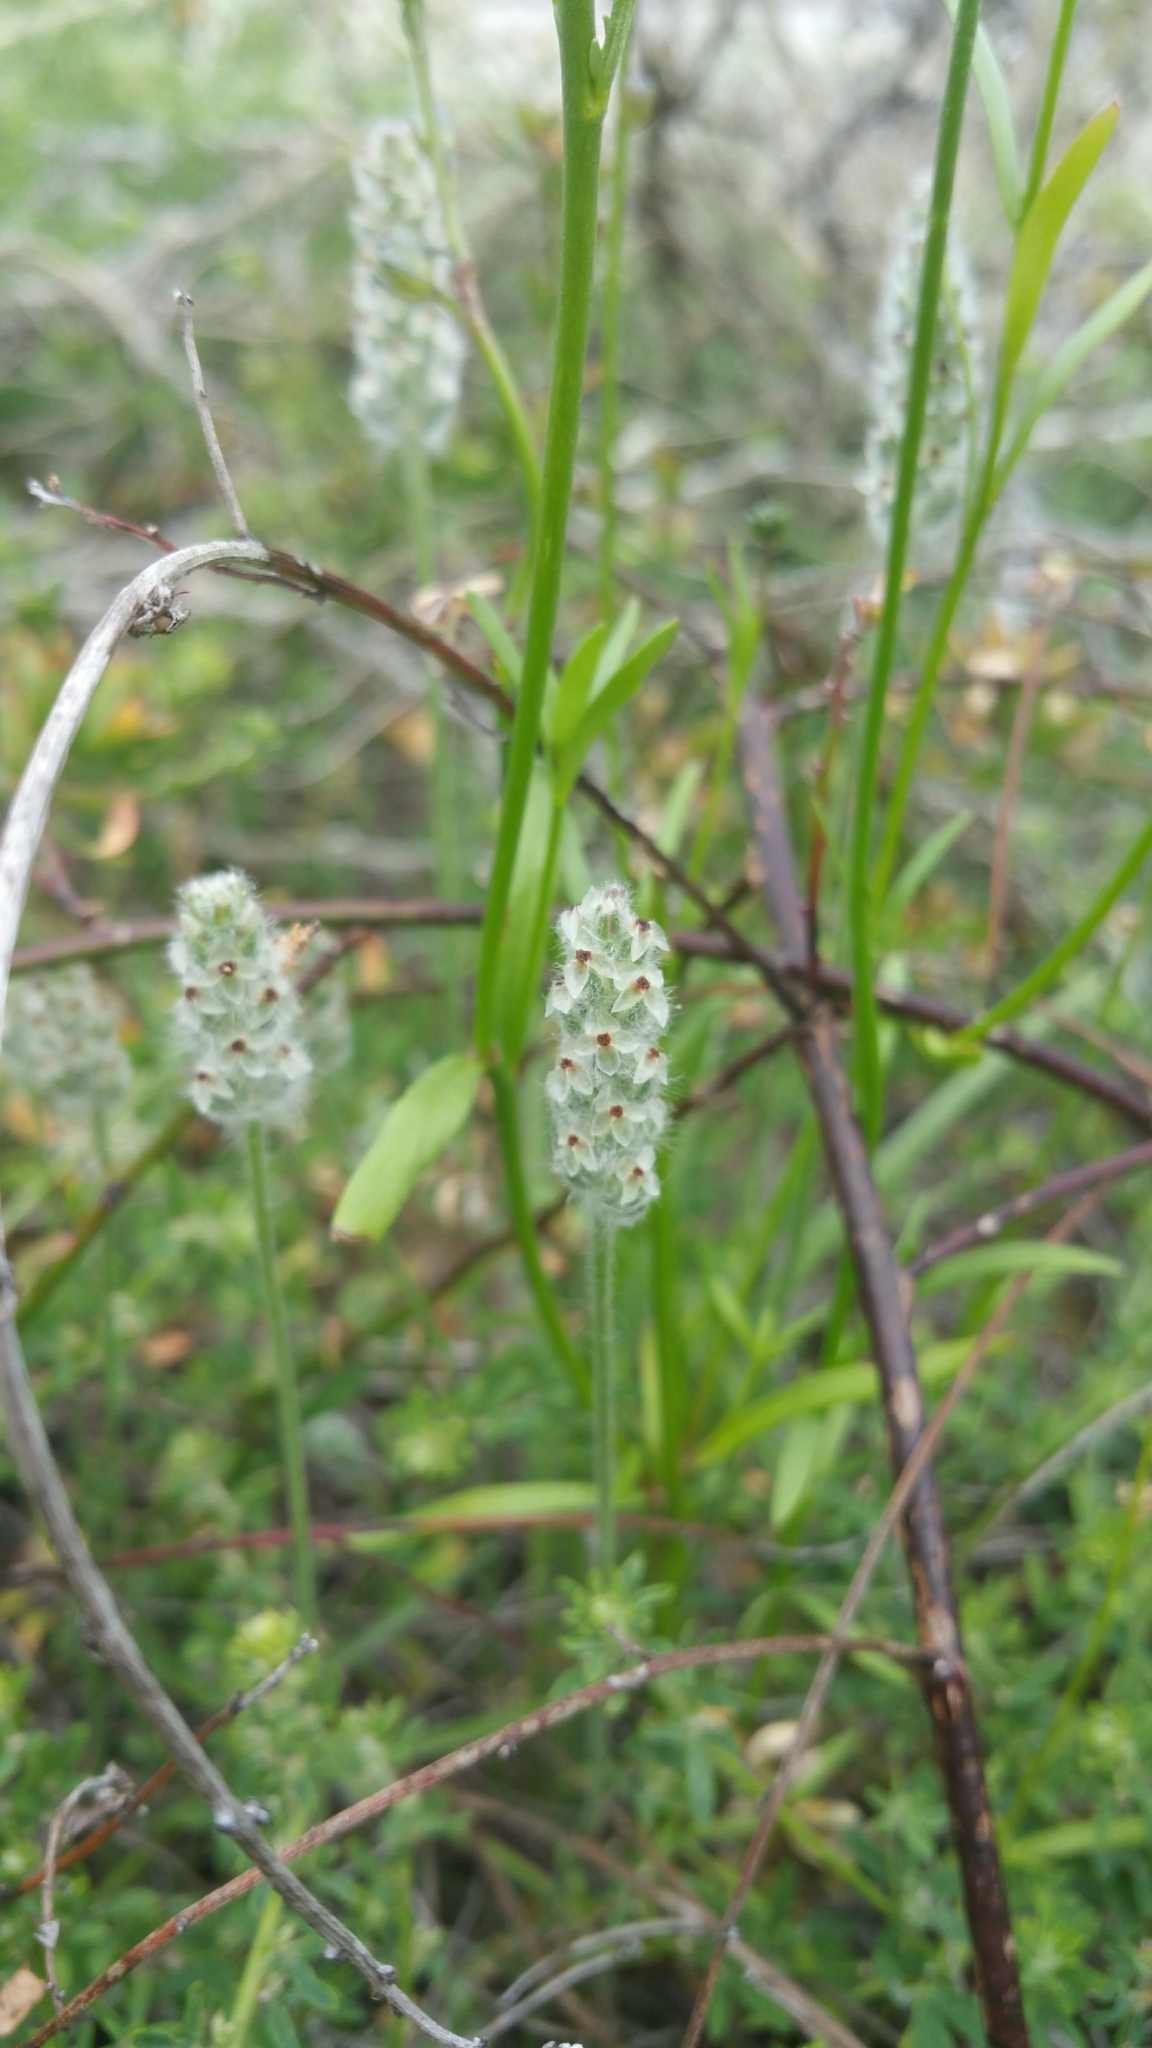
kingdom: Plantae
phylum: Tracheophyta
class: Magnoliopsida
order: Lamiales
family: Plantaginaceae
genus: Plantago
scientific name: Plantago erecta
